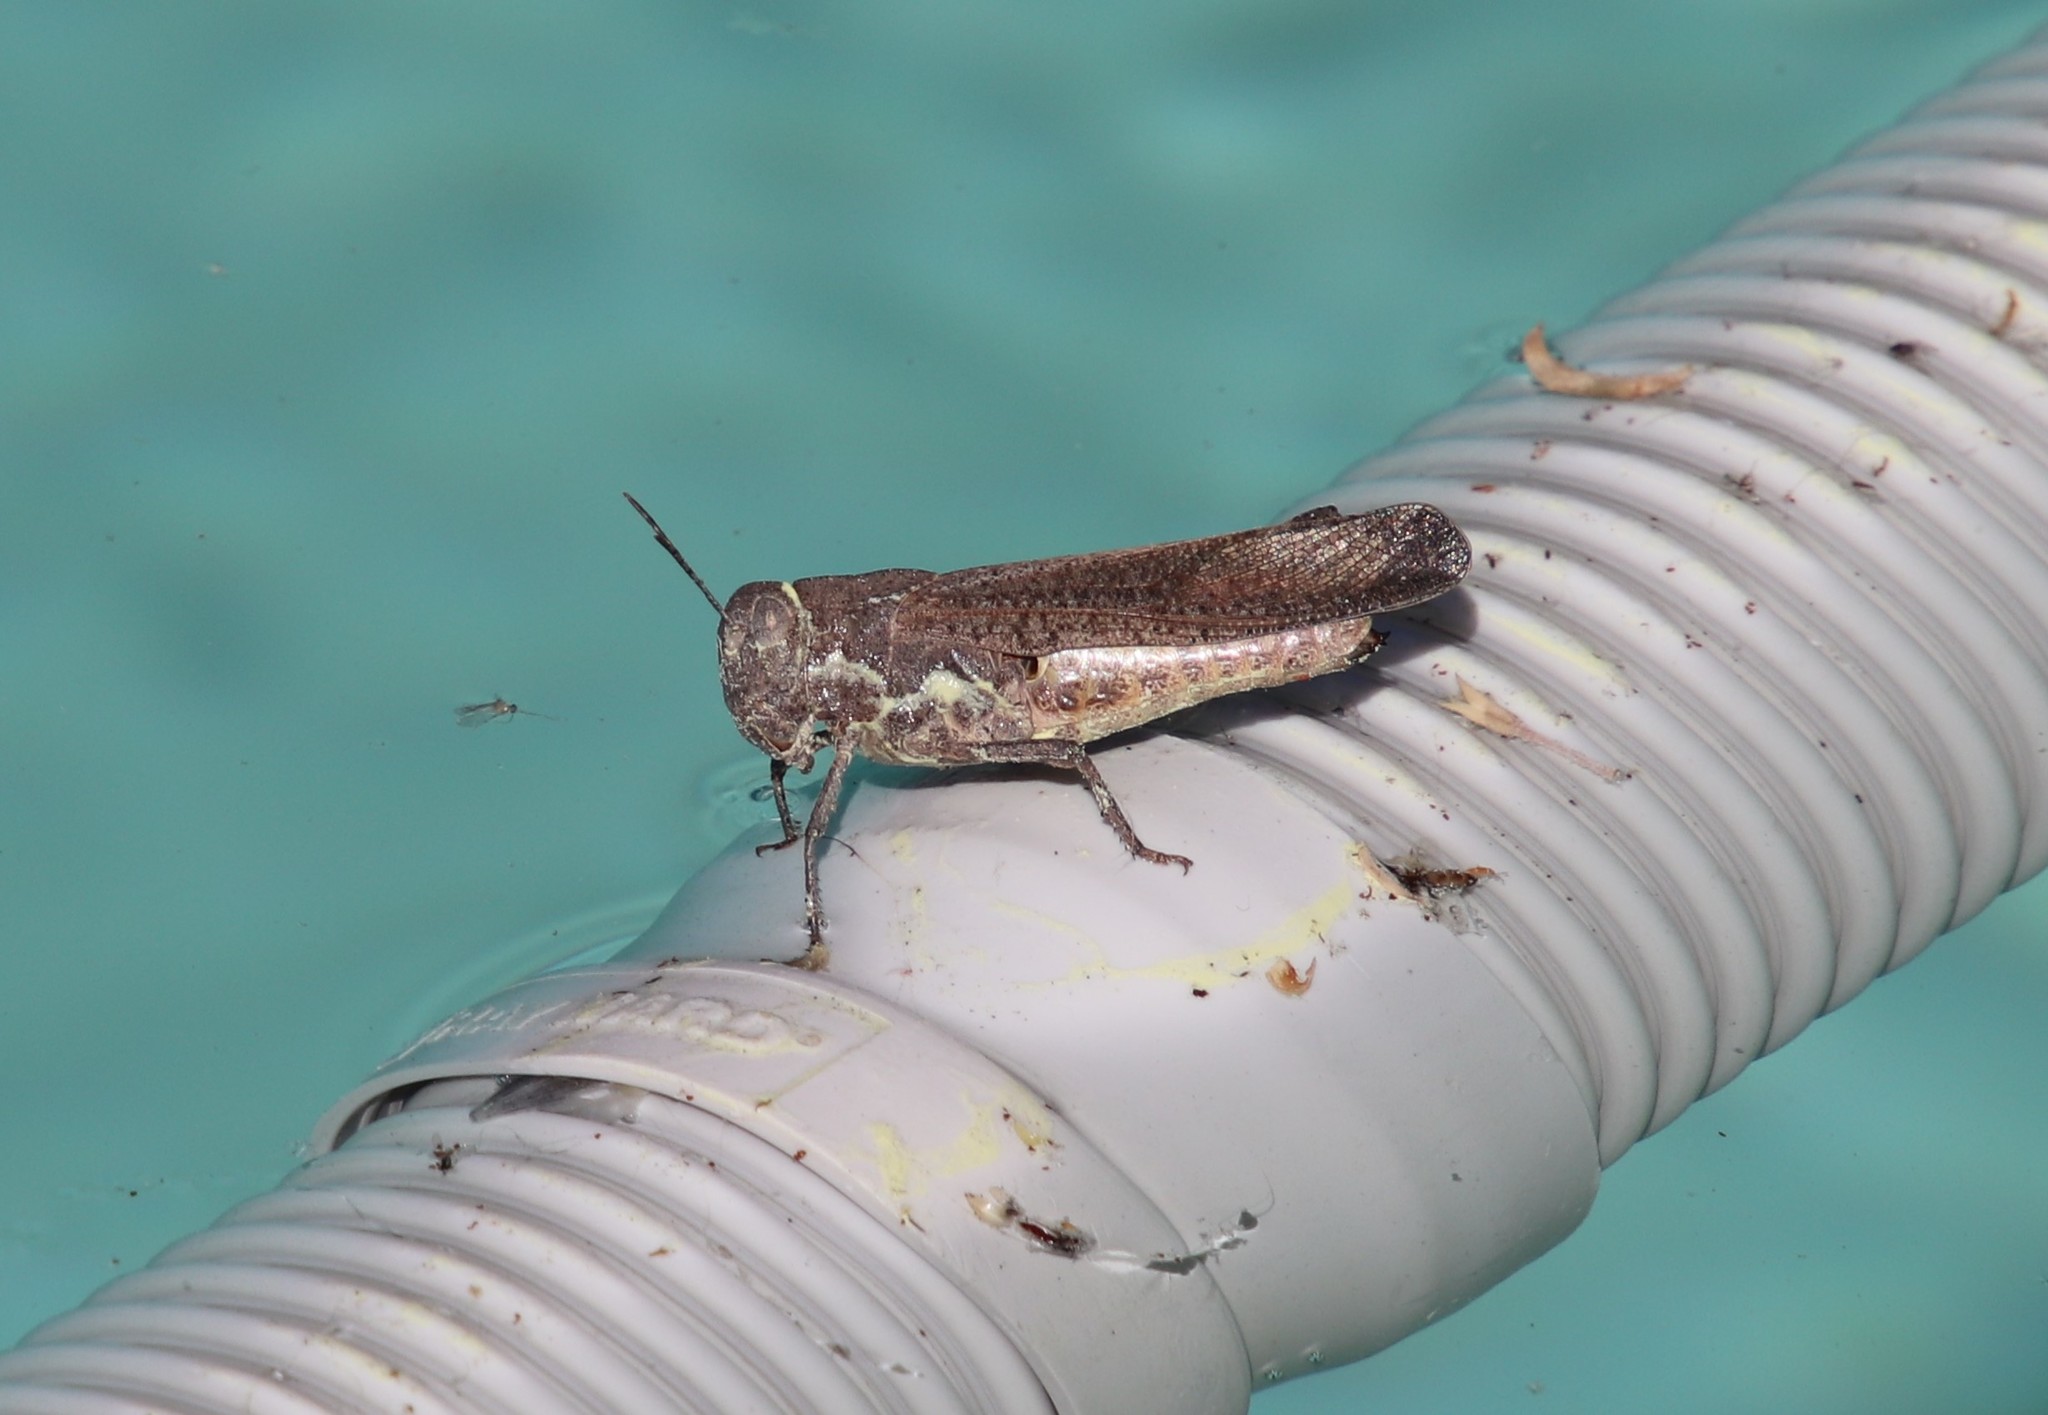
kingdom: Animalia
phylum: Arthropoda
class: Insecta
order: Orthoptera
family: Acrididae
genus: Arphia
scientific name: Arphia ramona
